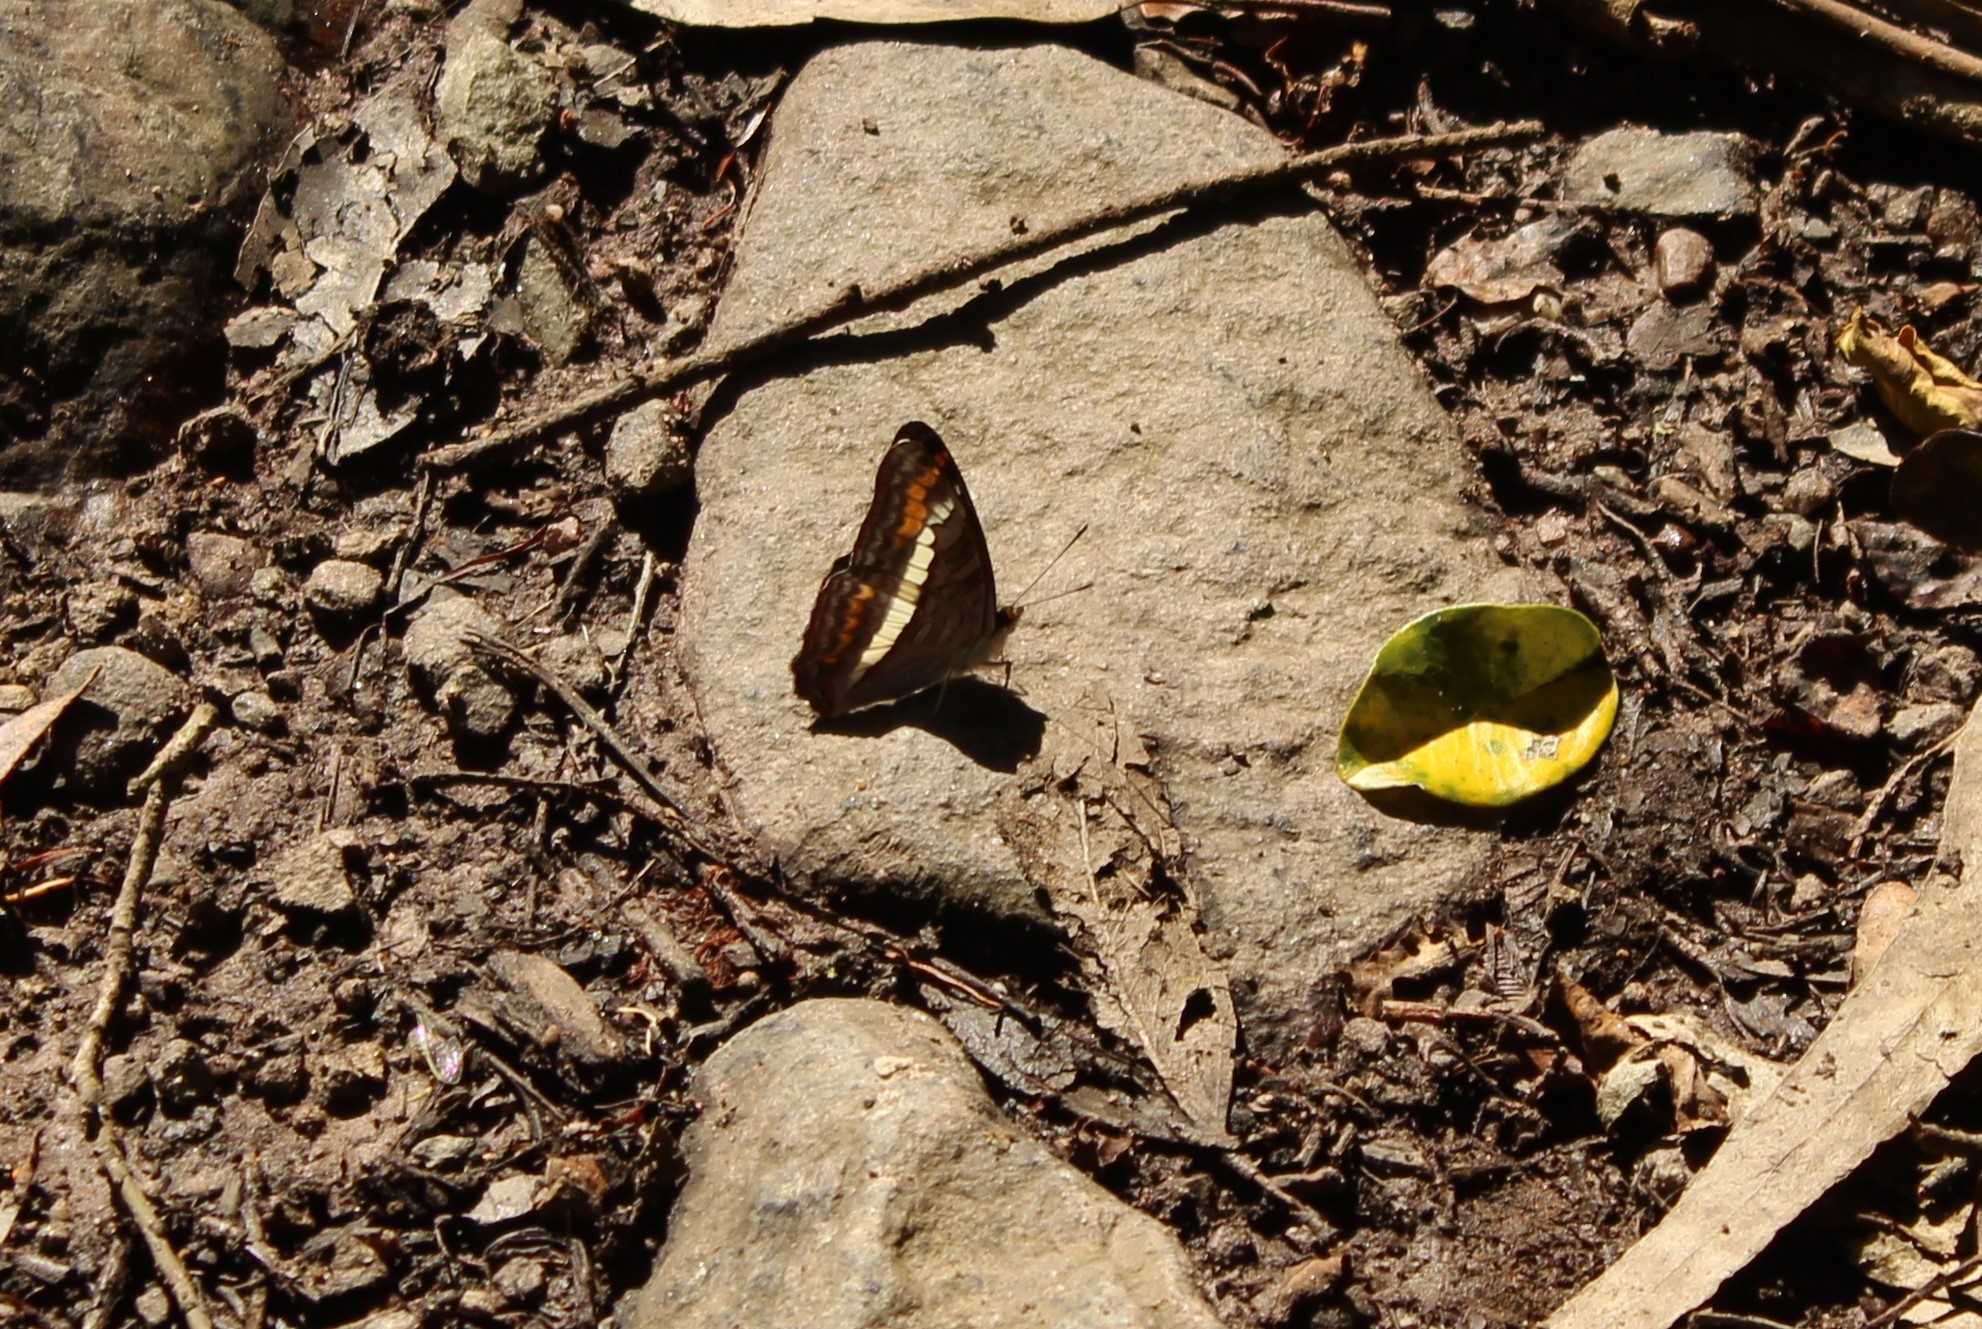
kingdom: Animalia
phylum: Arthropoda
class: Insecta
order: Lepidoptera
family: Nymphalidae
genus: Limenitis
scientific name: Limenitis corcyra
